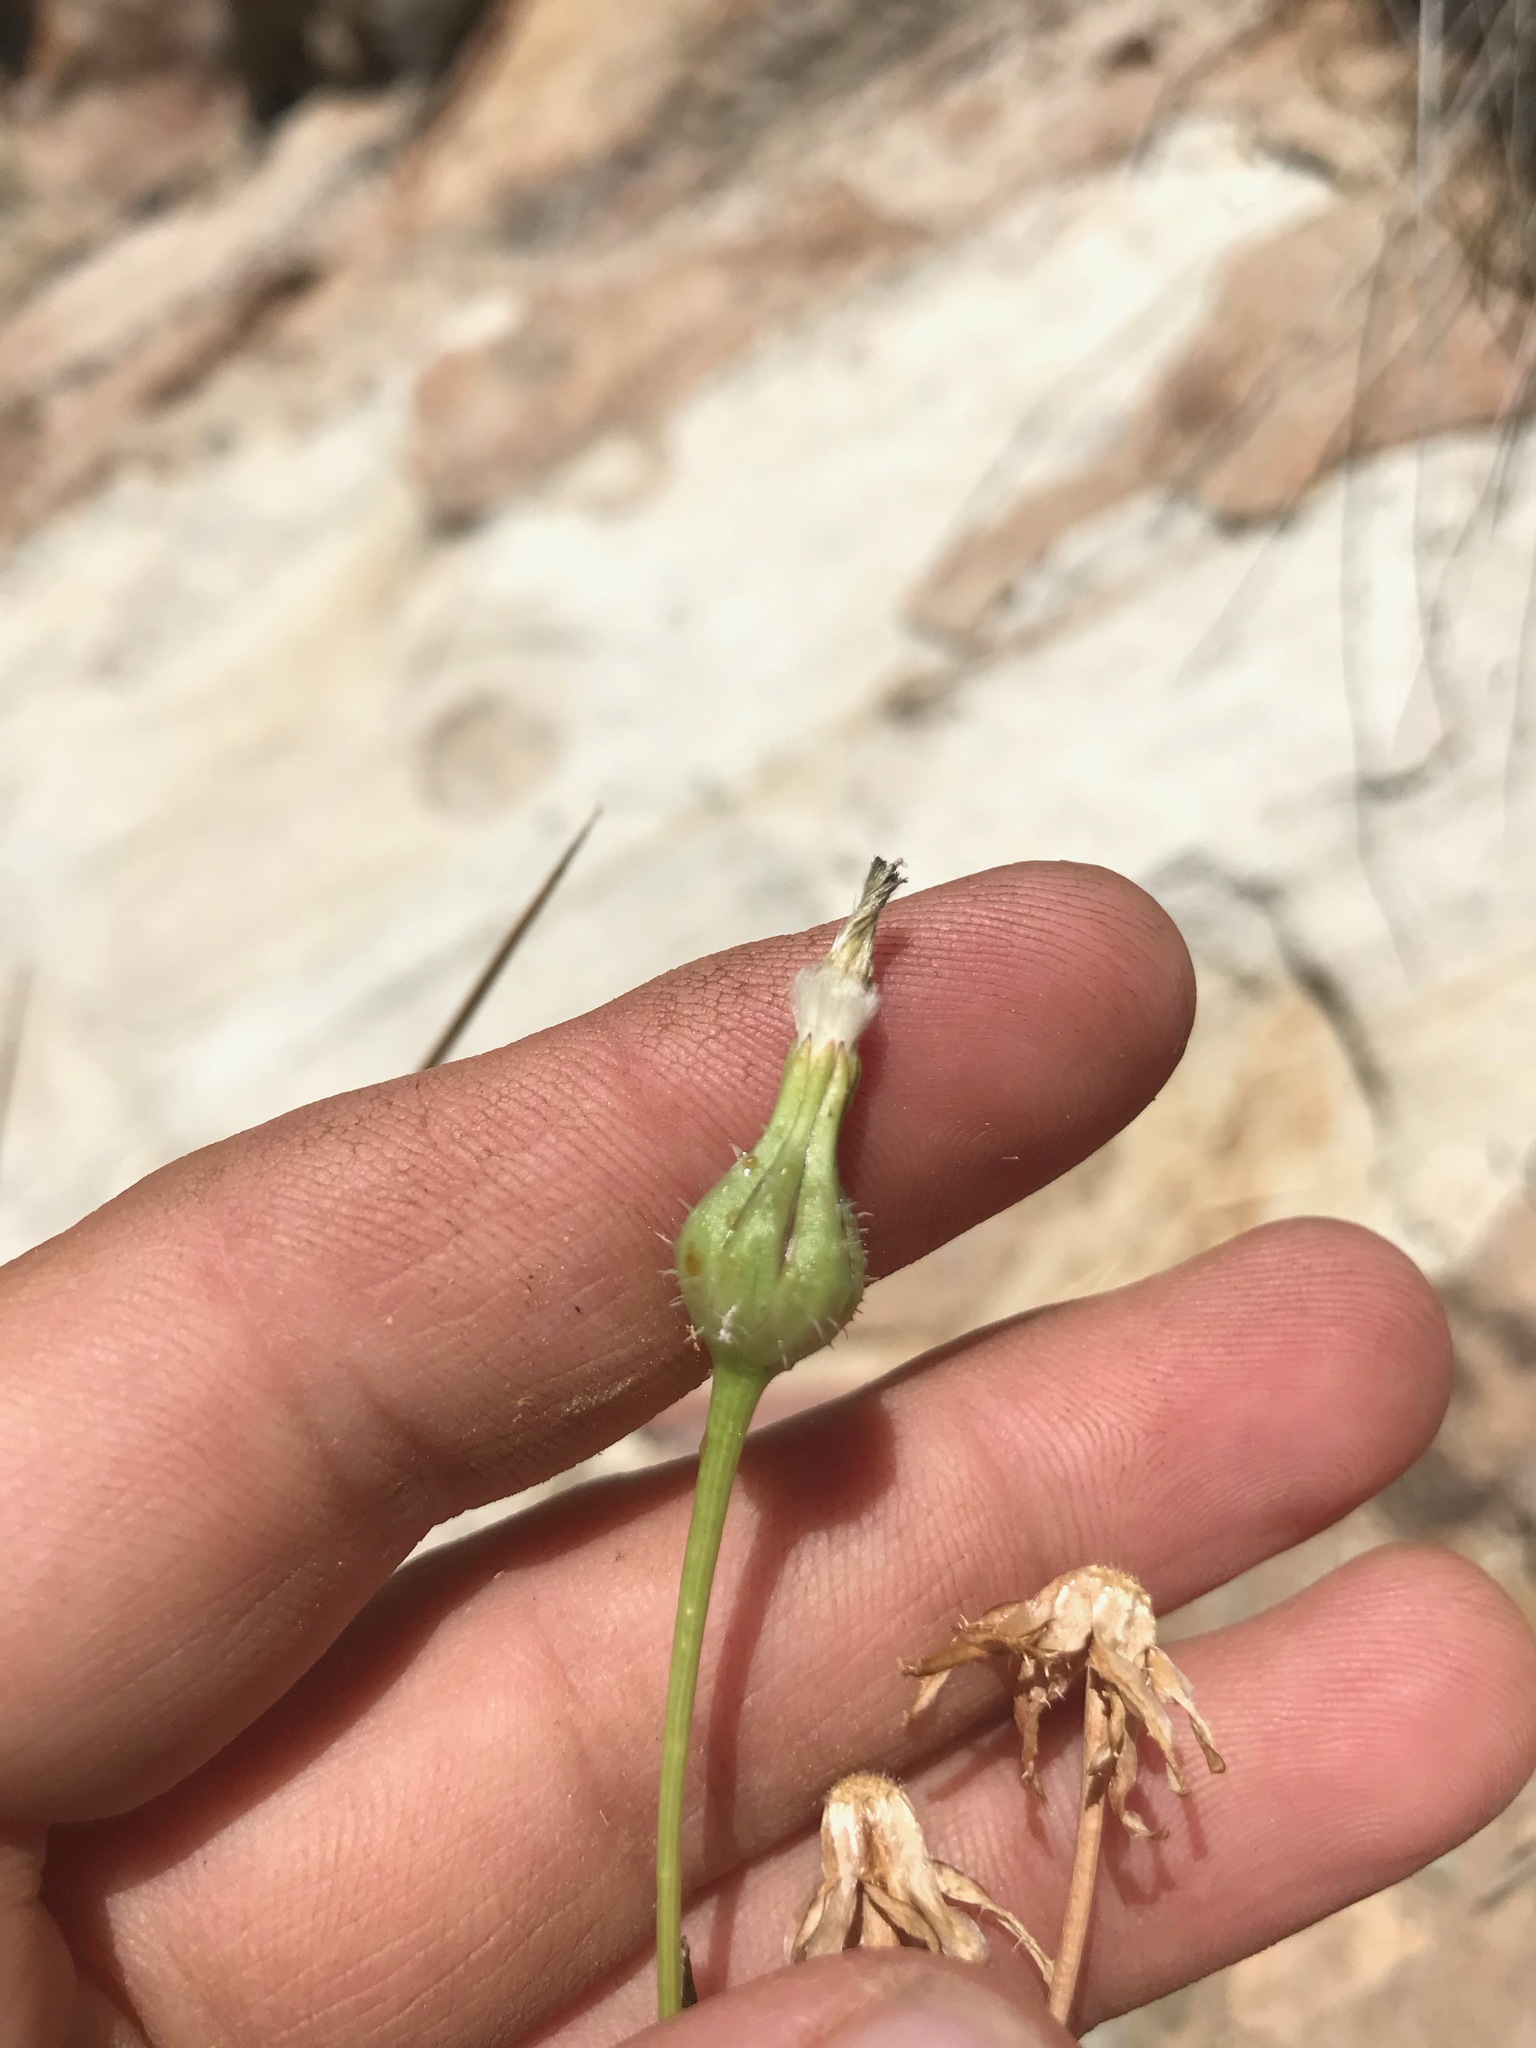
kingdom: Plantae
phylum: Tracheophyta
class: Magnoliopsida
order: Asterales
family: Asteraceae
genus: Urospermum
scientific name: Urospermum picroides
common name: False hawkbit
